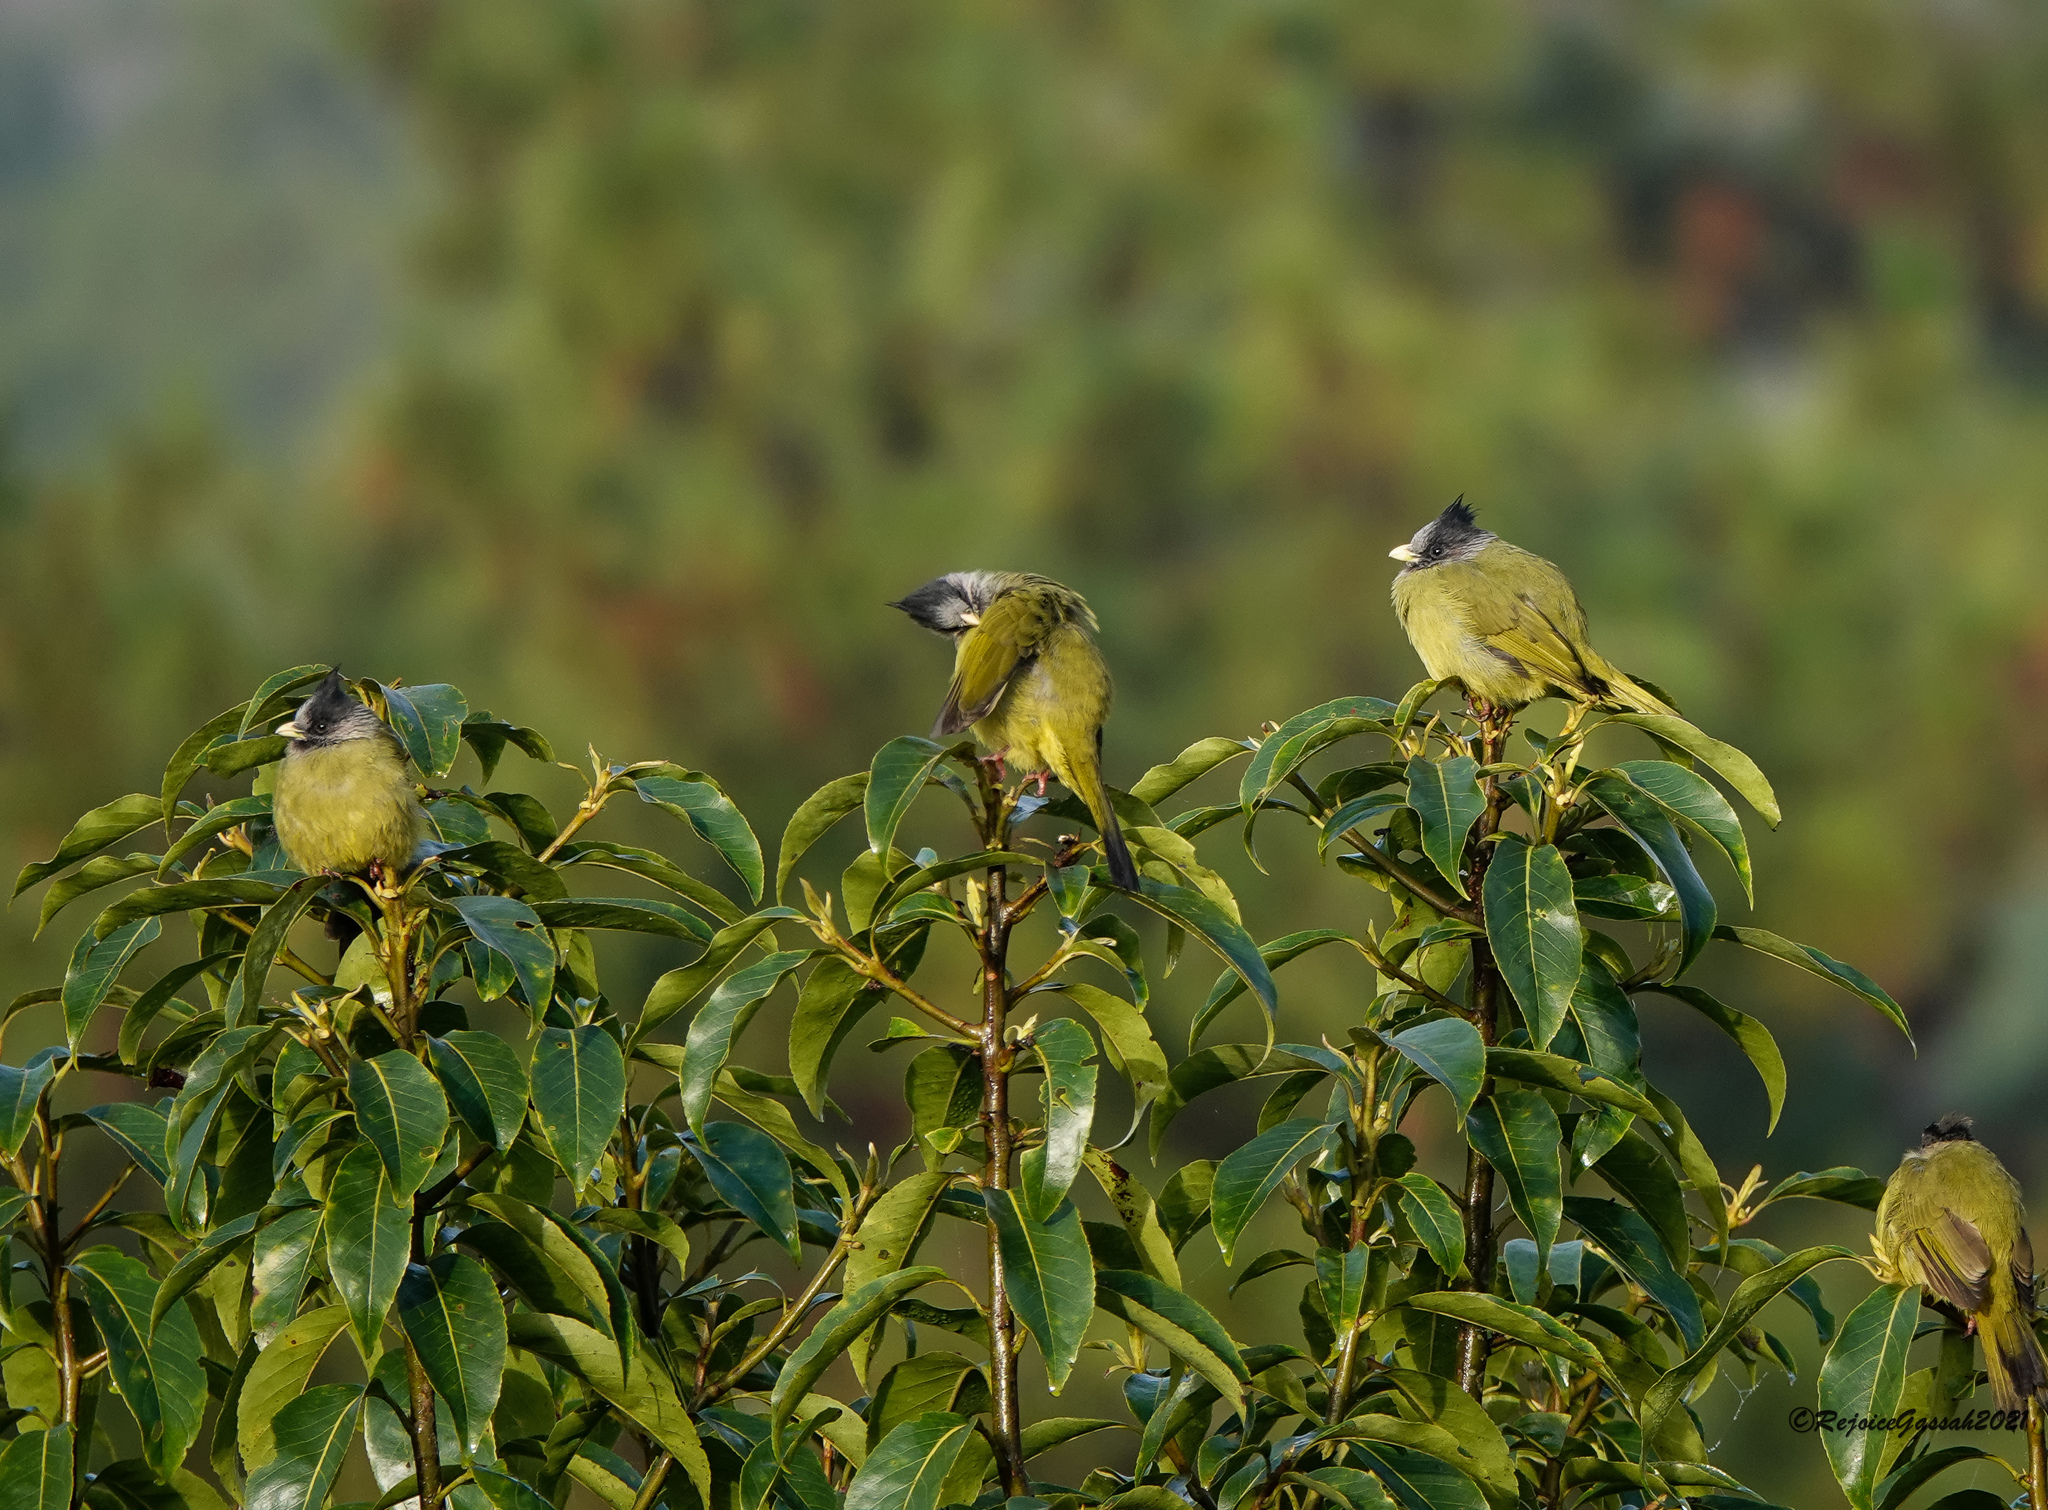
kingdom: Animalia
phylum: Chordata
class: Aves
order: Passeriformes
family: Pycnonotidae
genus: Spizixos
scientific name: Spizixos canifrons
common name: Crested finchbill
